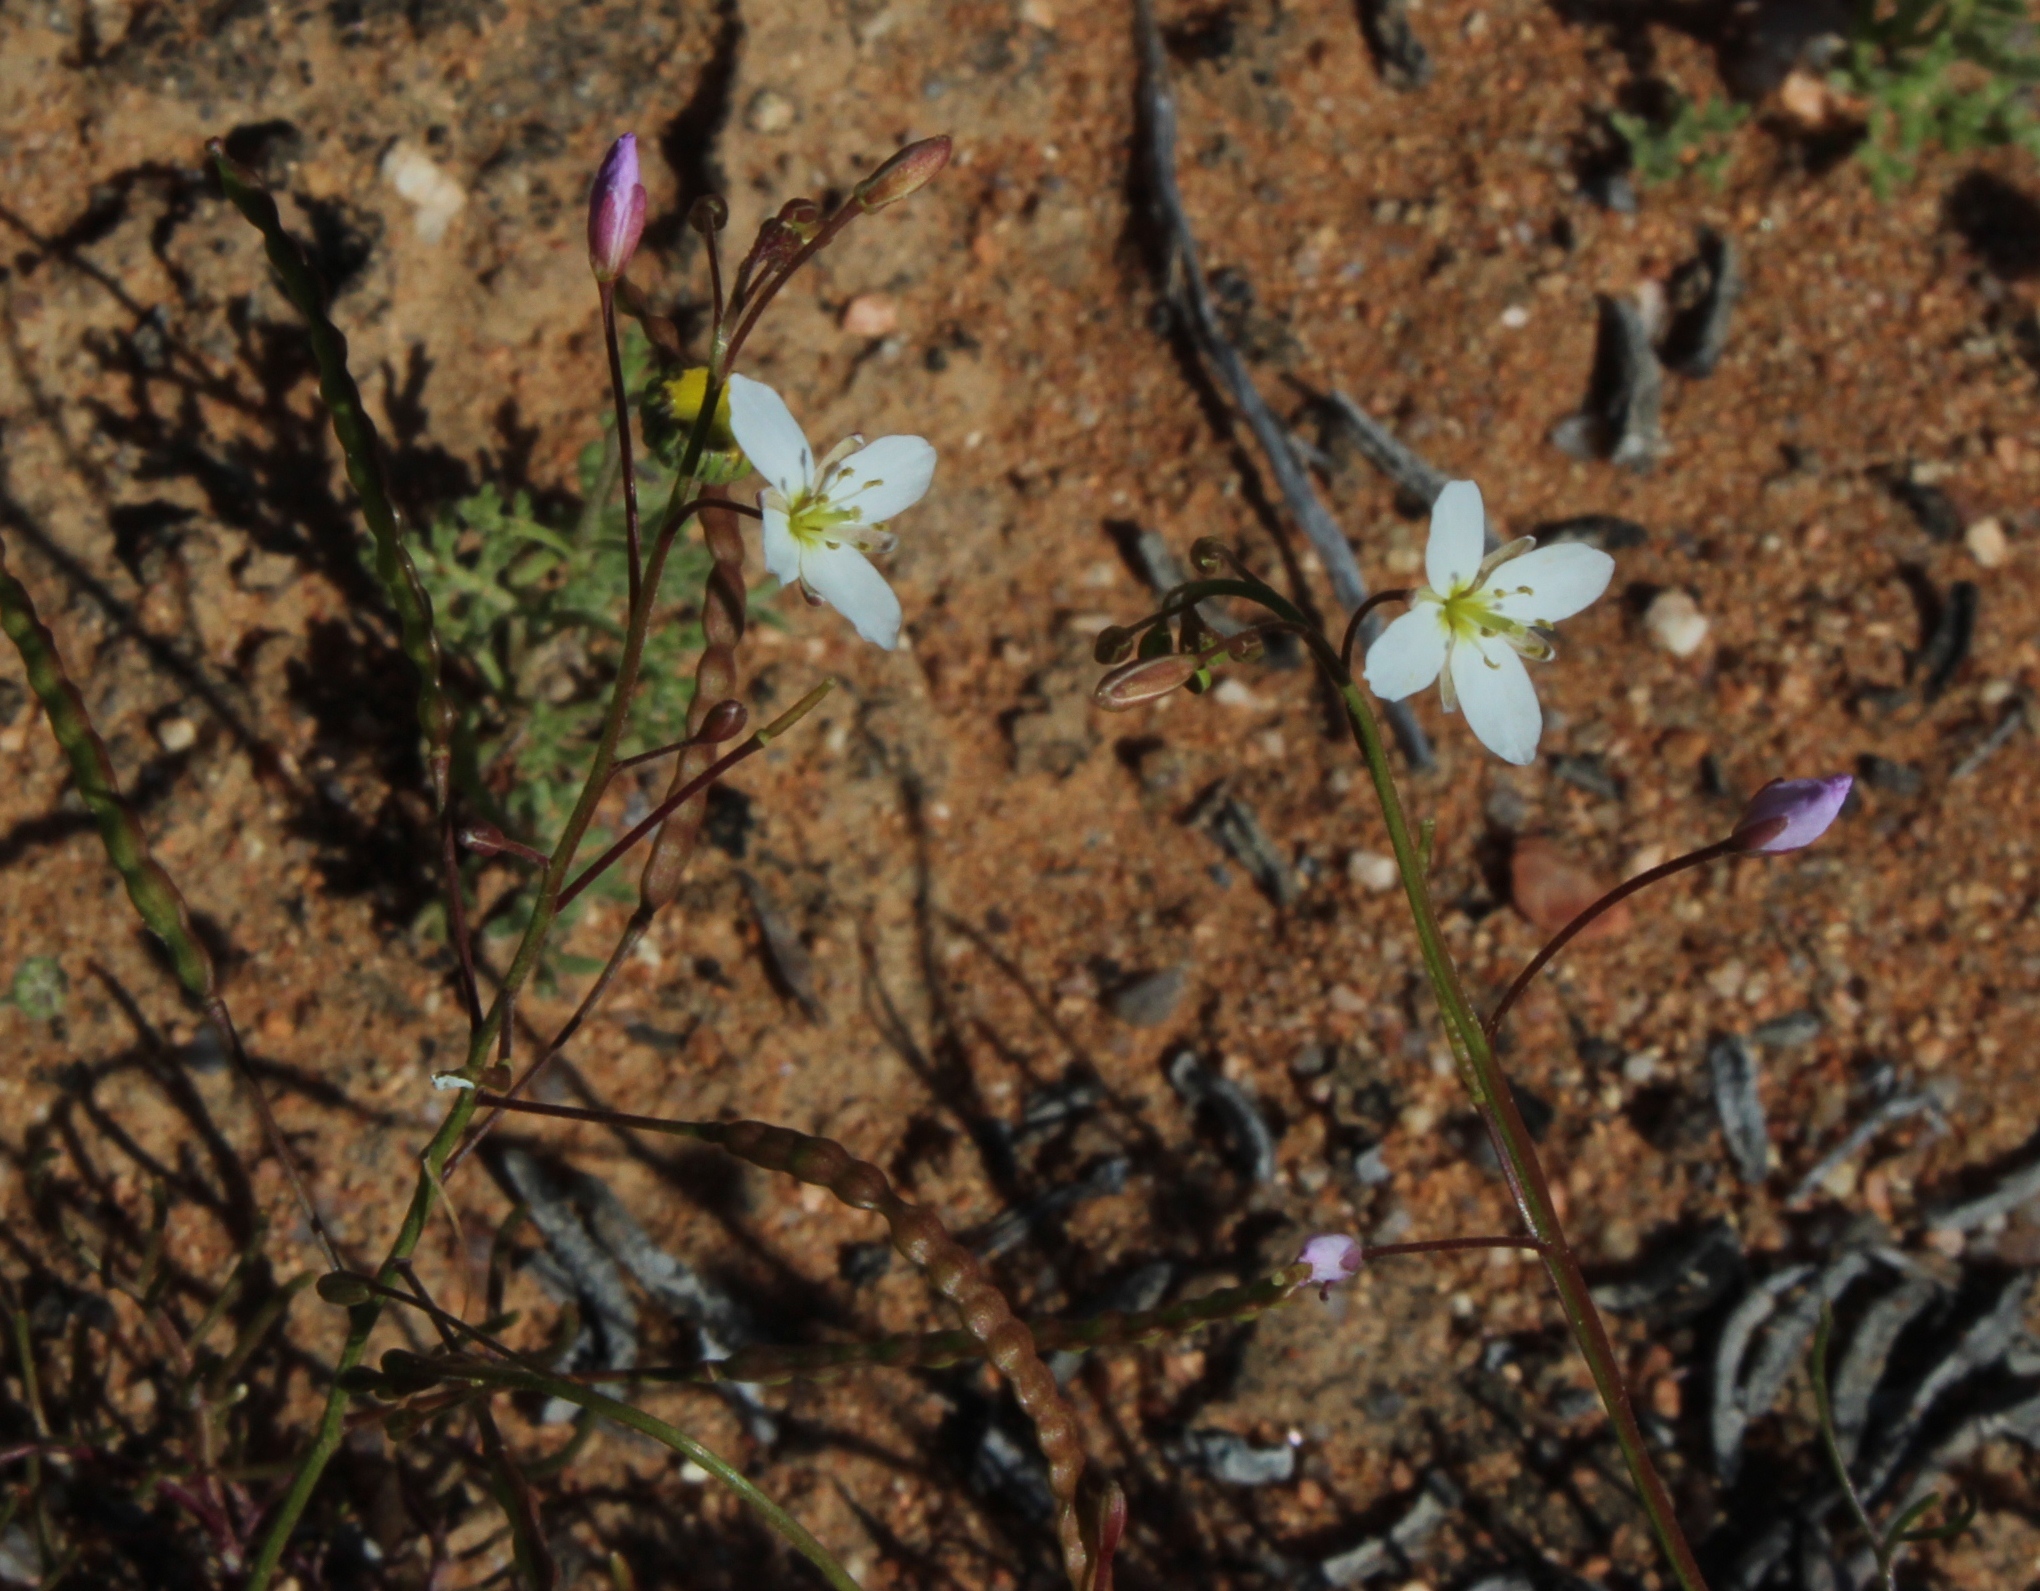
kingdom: Plantae
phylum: Tracheophyta
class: Magnoliopsida
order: Brassicales
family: Brassicaceae
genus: Heliophila
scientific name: Heliophila variabilis
